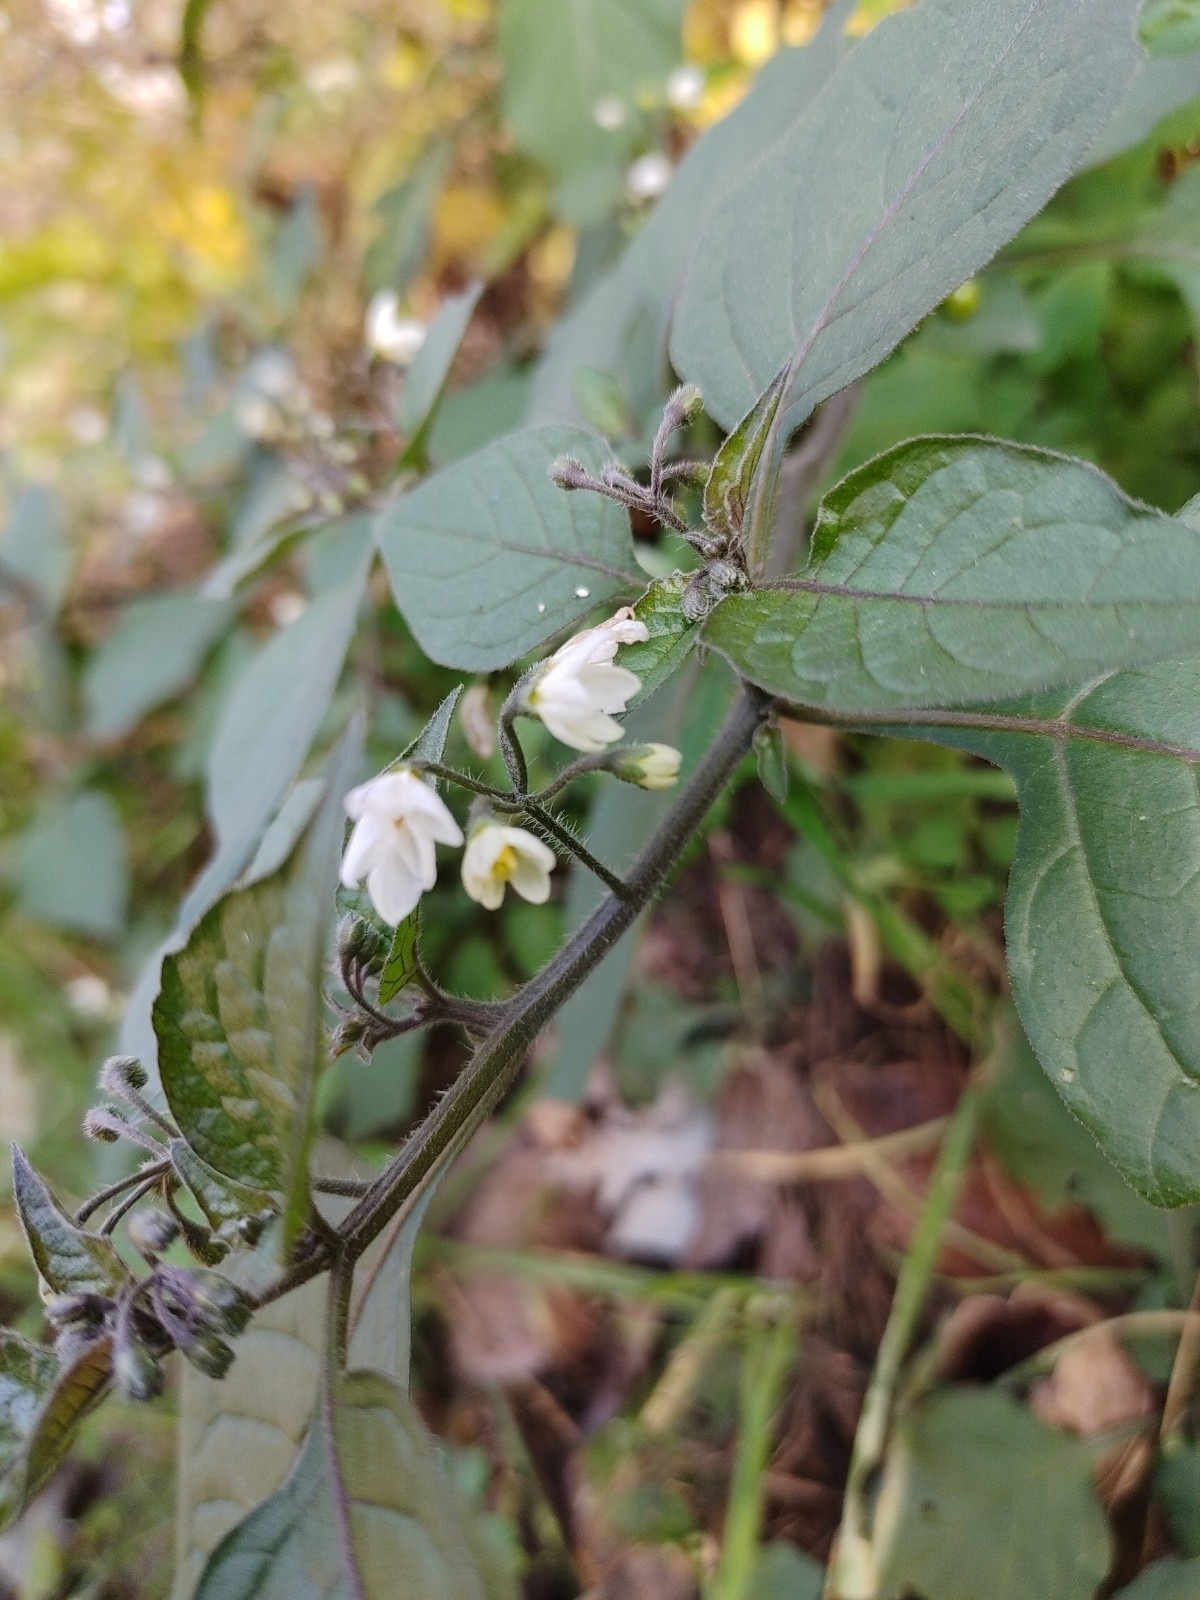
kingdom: Plantae
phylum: Tracheophyta
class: Magnoliopsida
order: Solanales
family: Solanaceae
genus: Solanum
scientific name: Solanum nigrum
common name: Black nightshade
